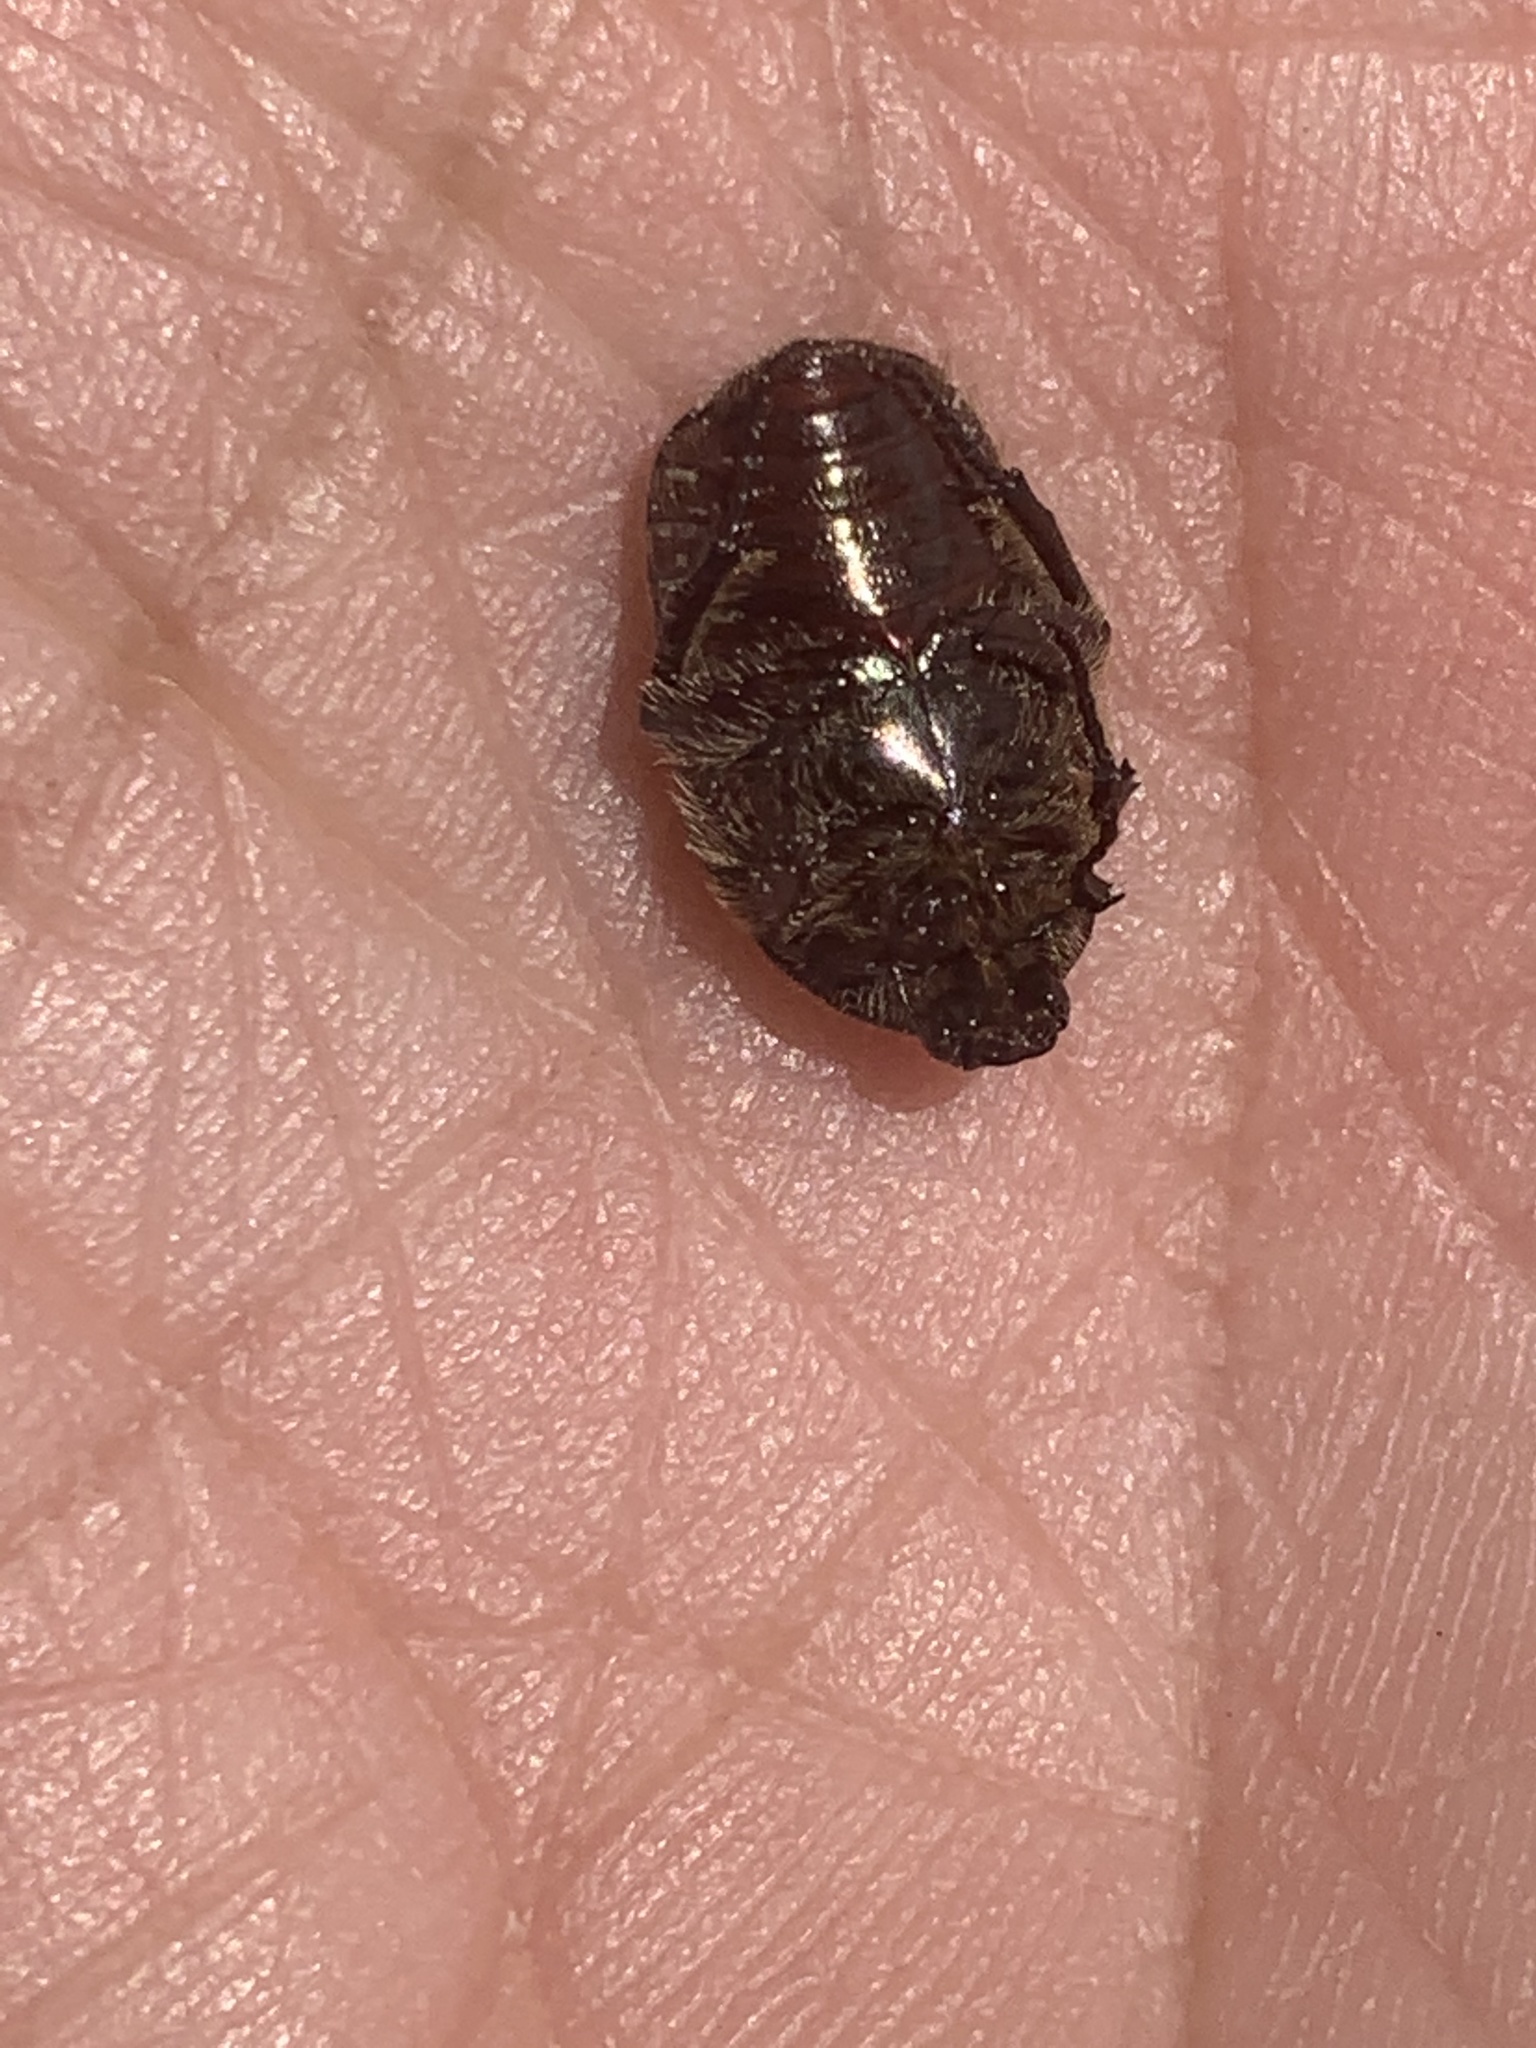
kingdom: Animalia
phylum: Arthropoda
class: Insecta
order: Coleoptera
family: Scarabaeidae
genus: Euphoria
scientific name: Euphoria sepulcralis
